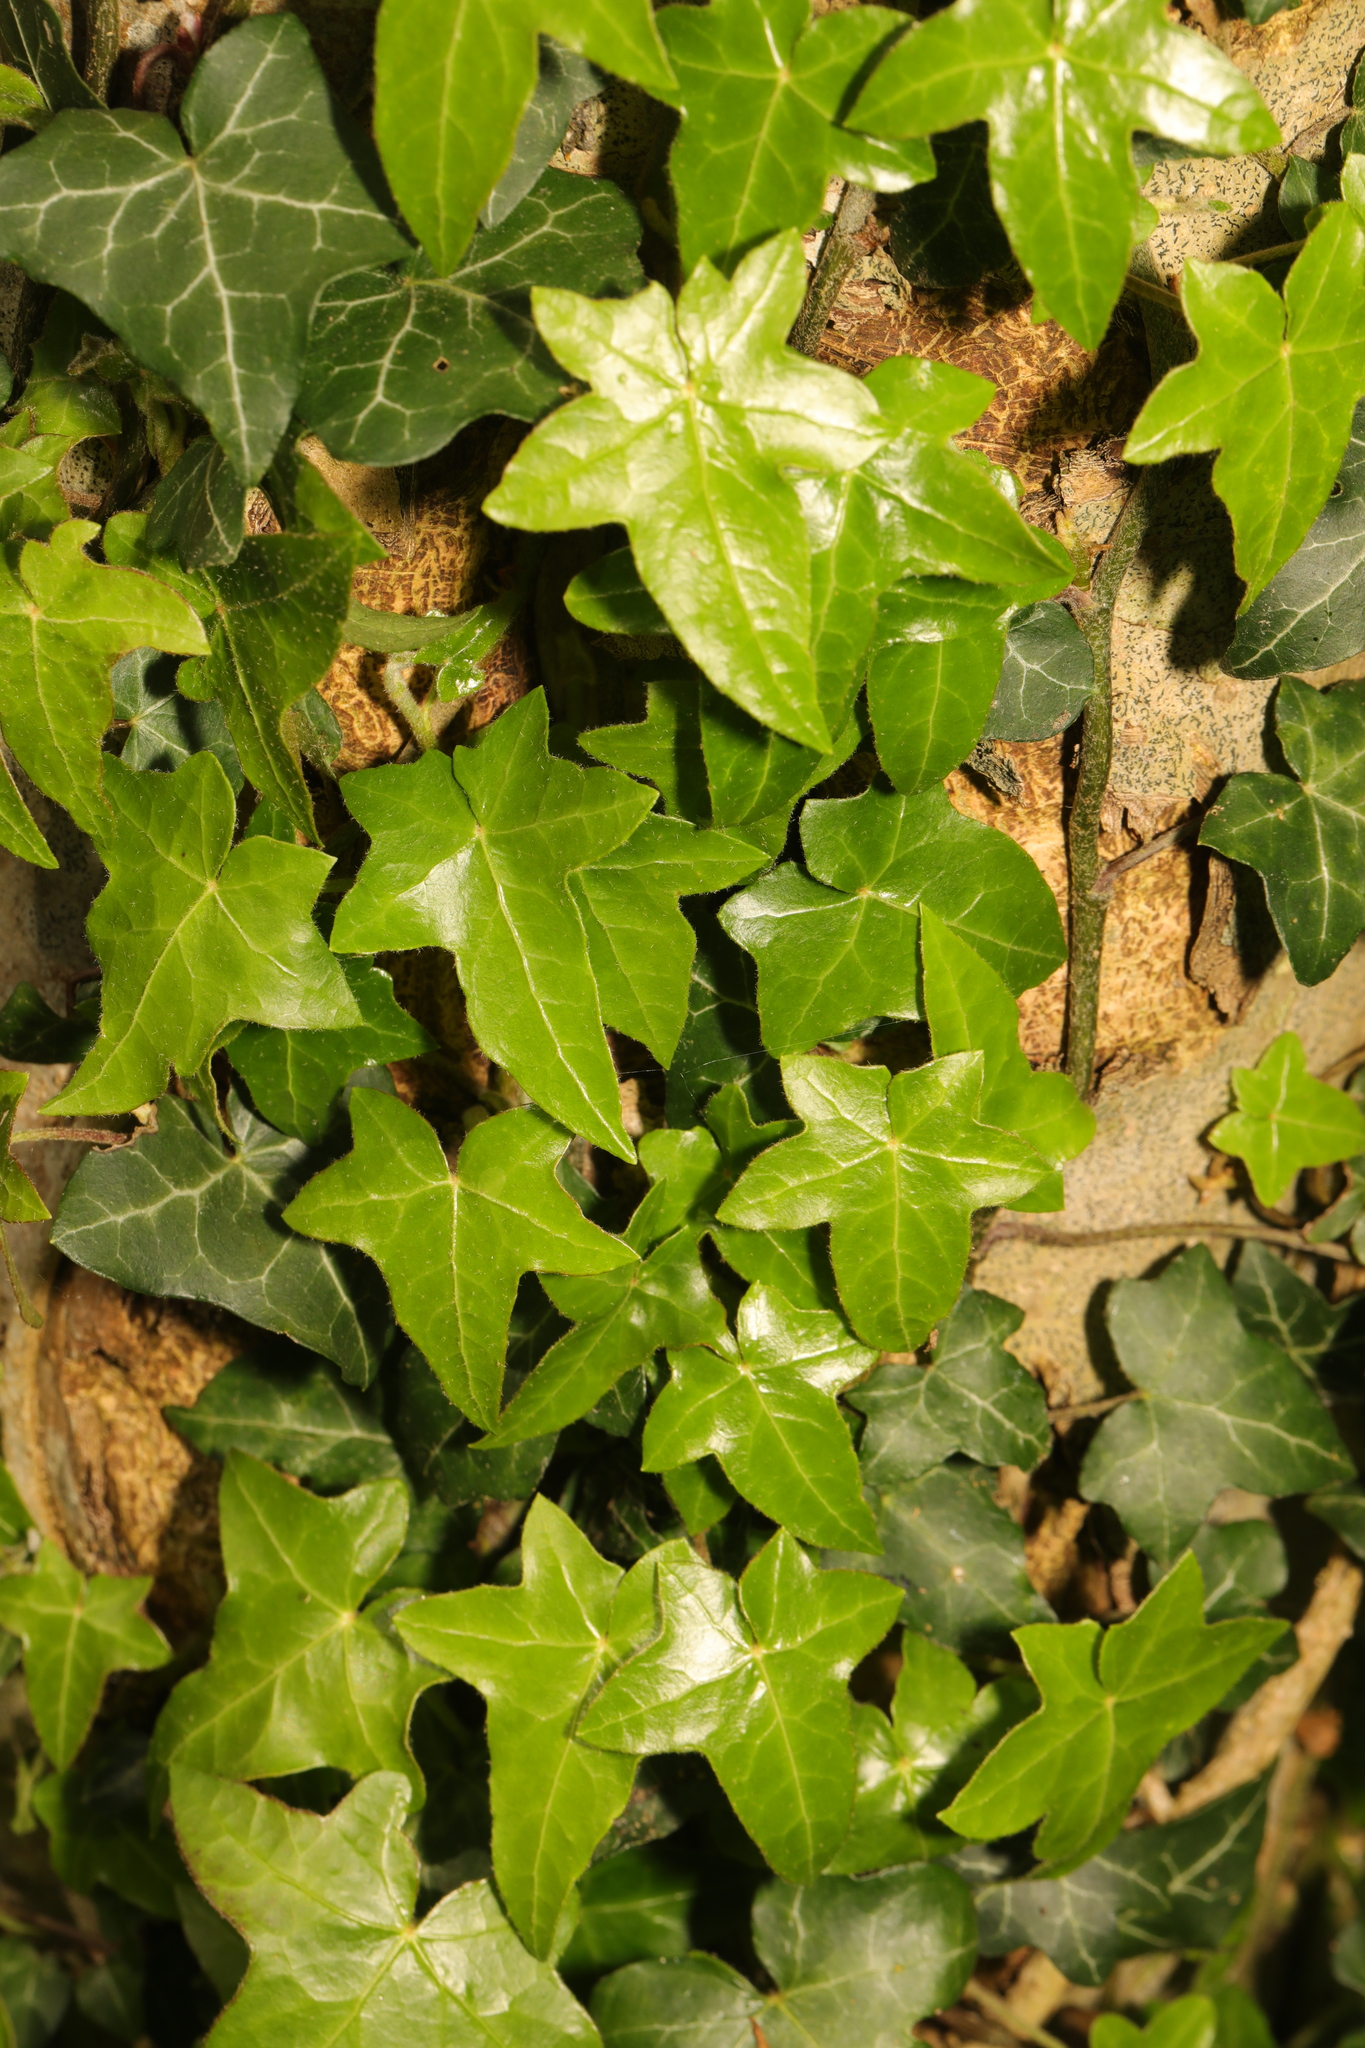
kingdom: Plantae
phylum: Tracheophyta
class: Magnoliopsida
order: Apiales
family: Araliaceae
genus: Hedera
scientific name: Hedera helix
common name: Ivy
